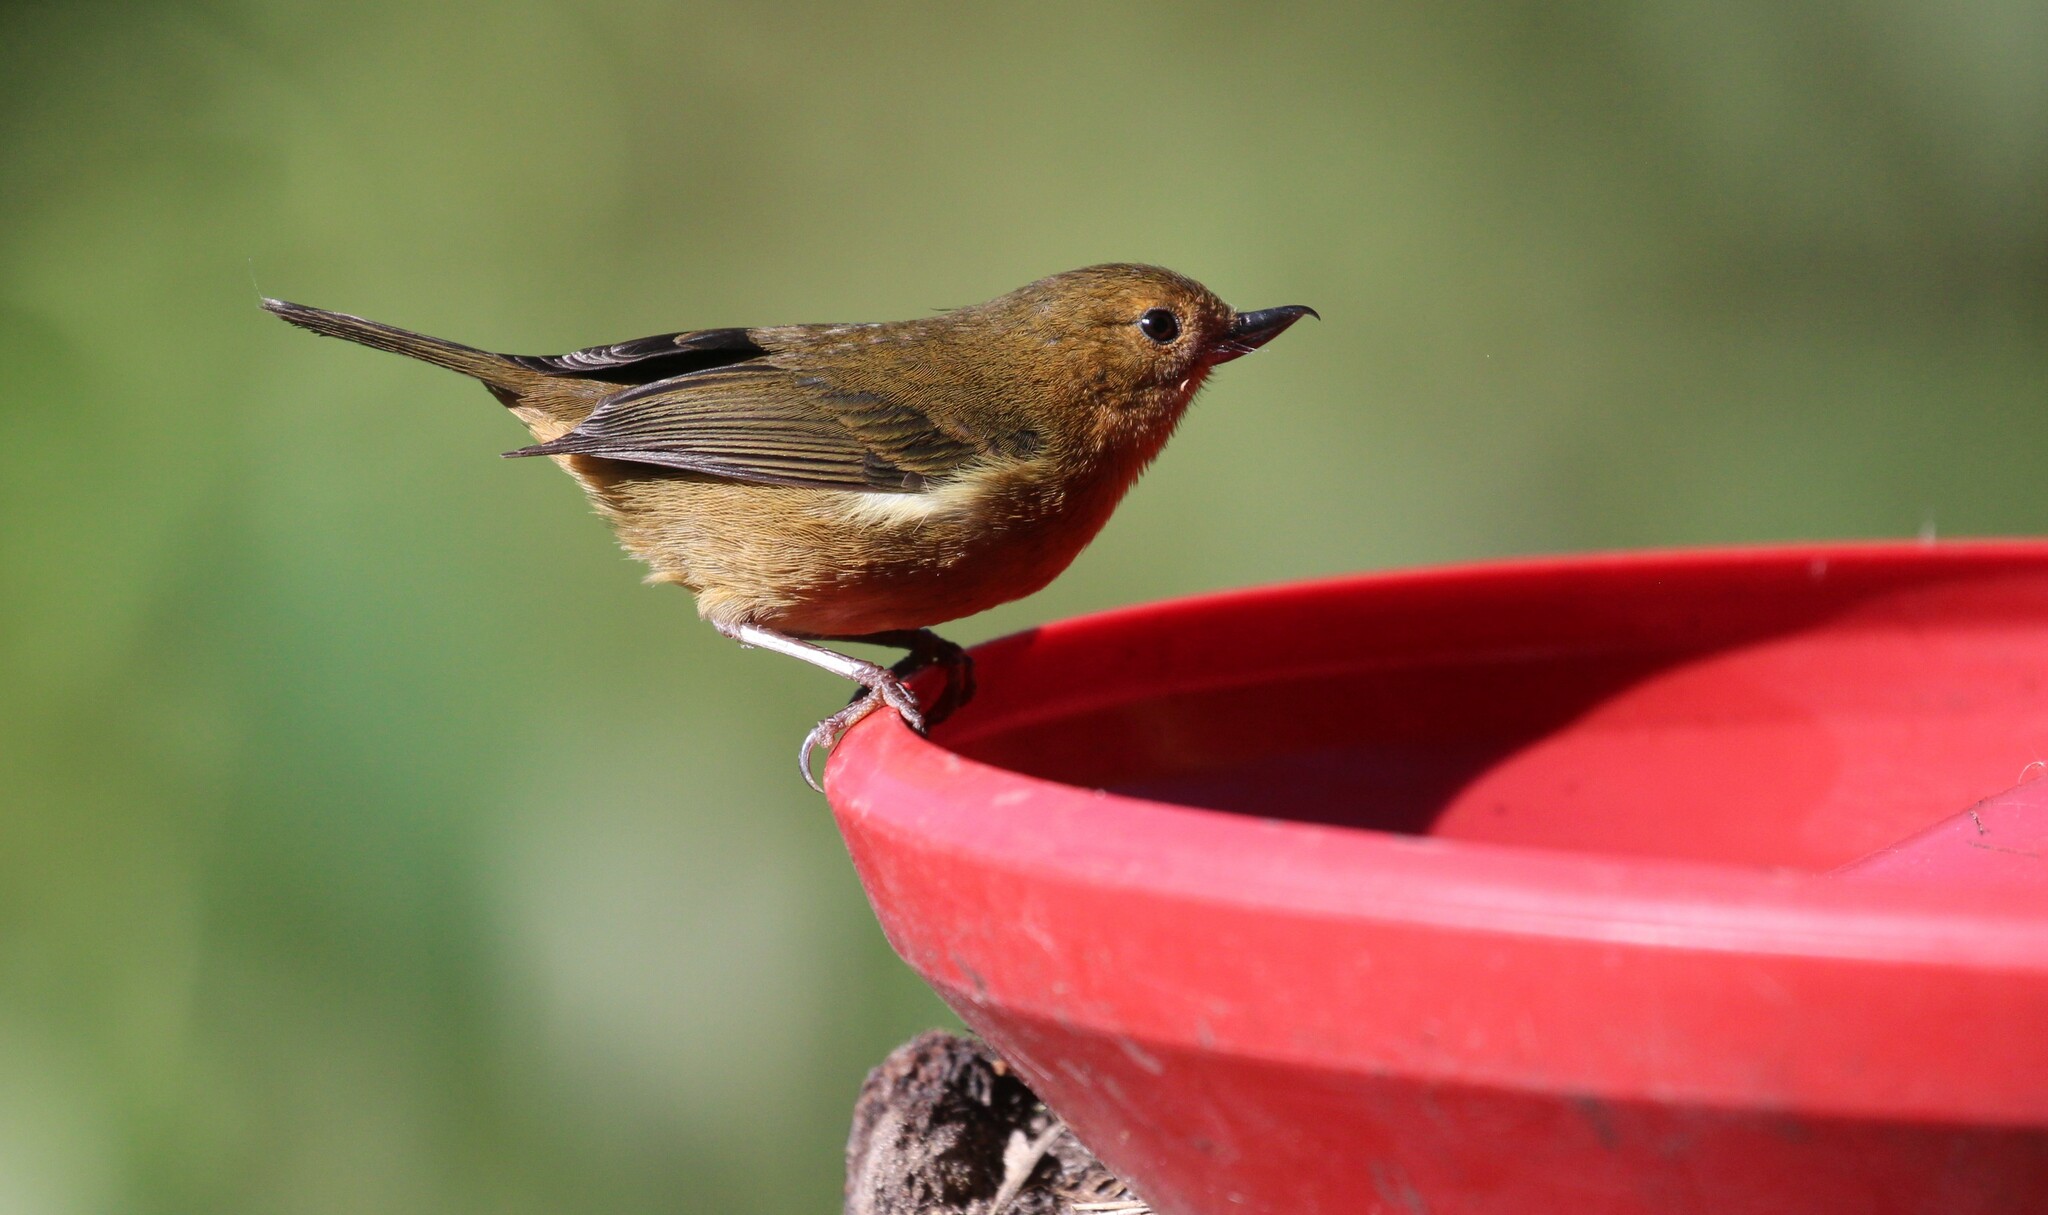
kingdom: Animalia
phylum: Chordata
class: Aves
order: Passeriformes
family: Thraupidae
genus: Diglossa
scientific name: Diglossa albilatera
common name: White-sided flowerpiercer
